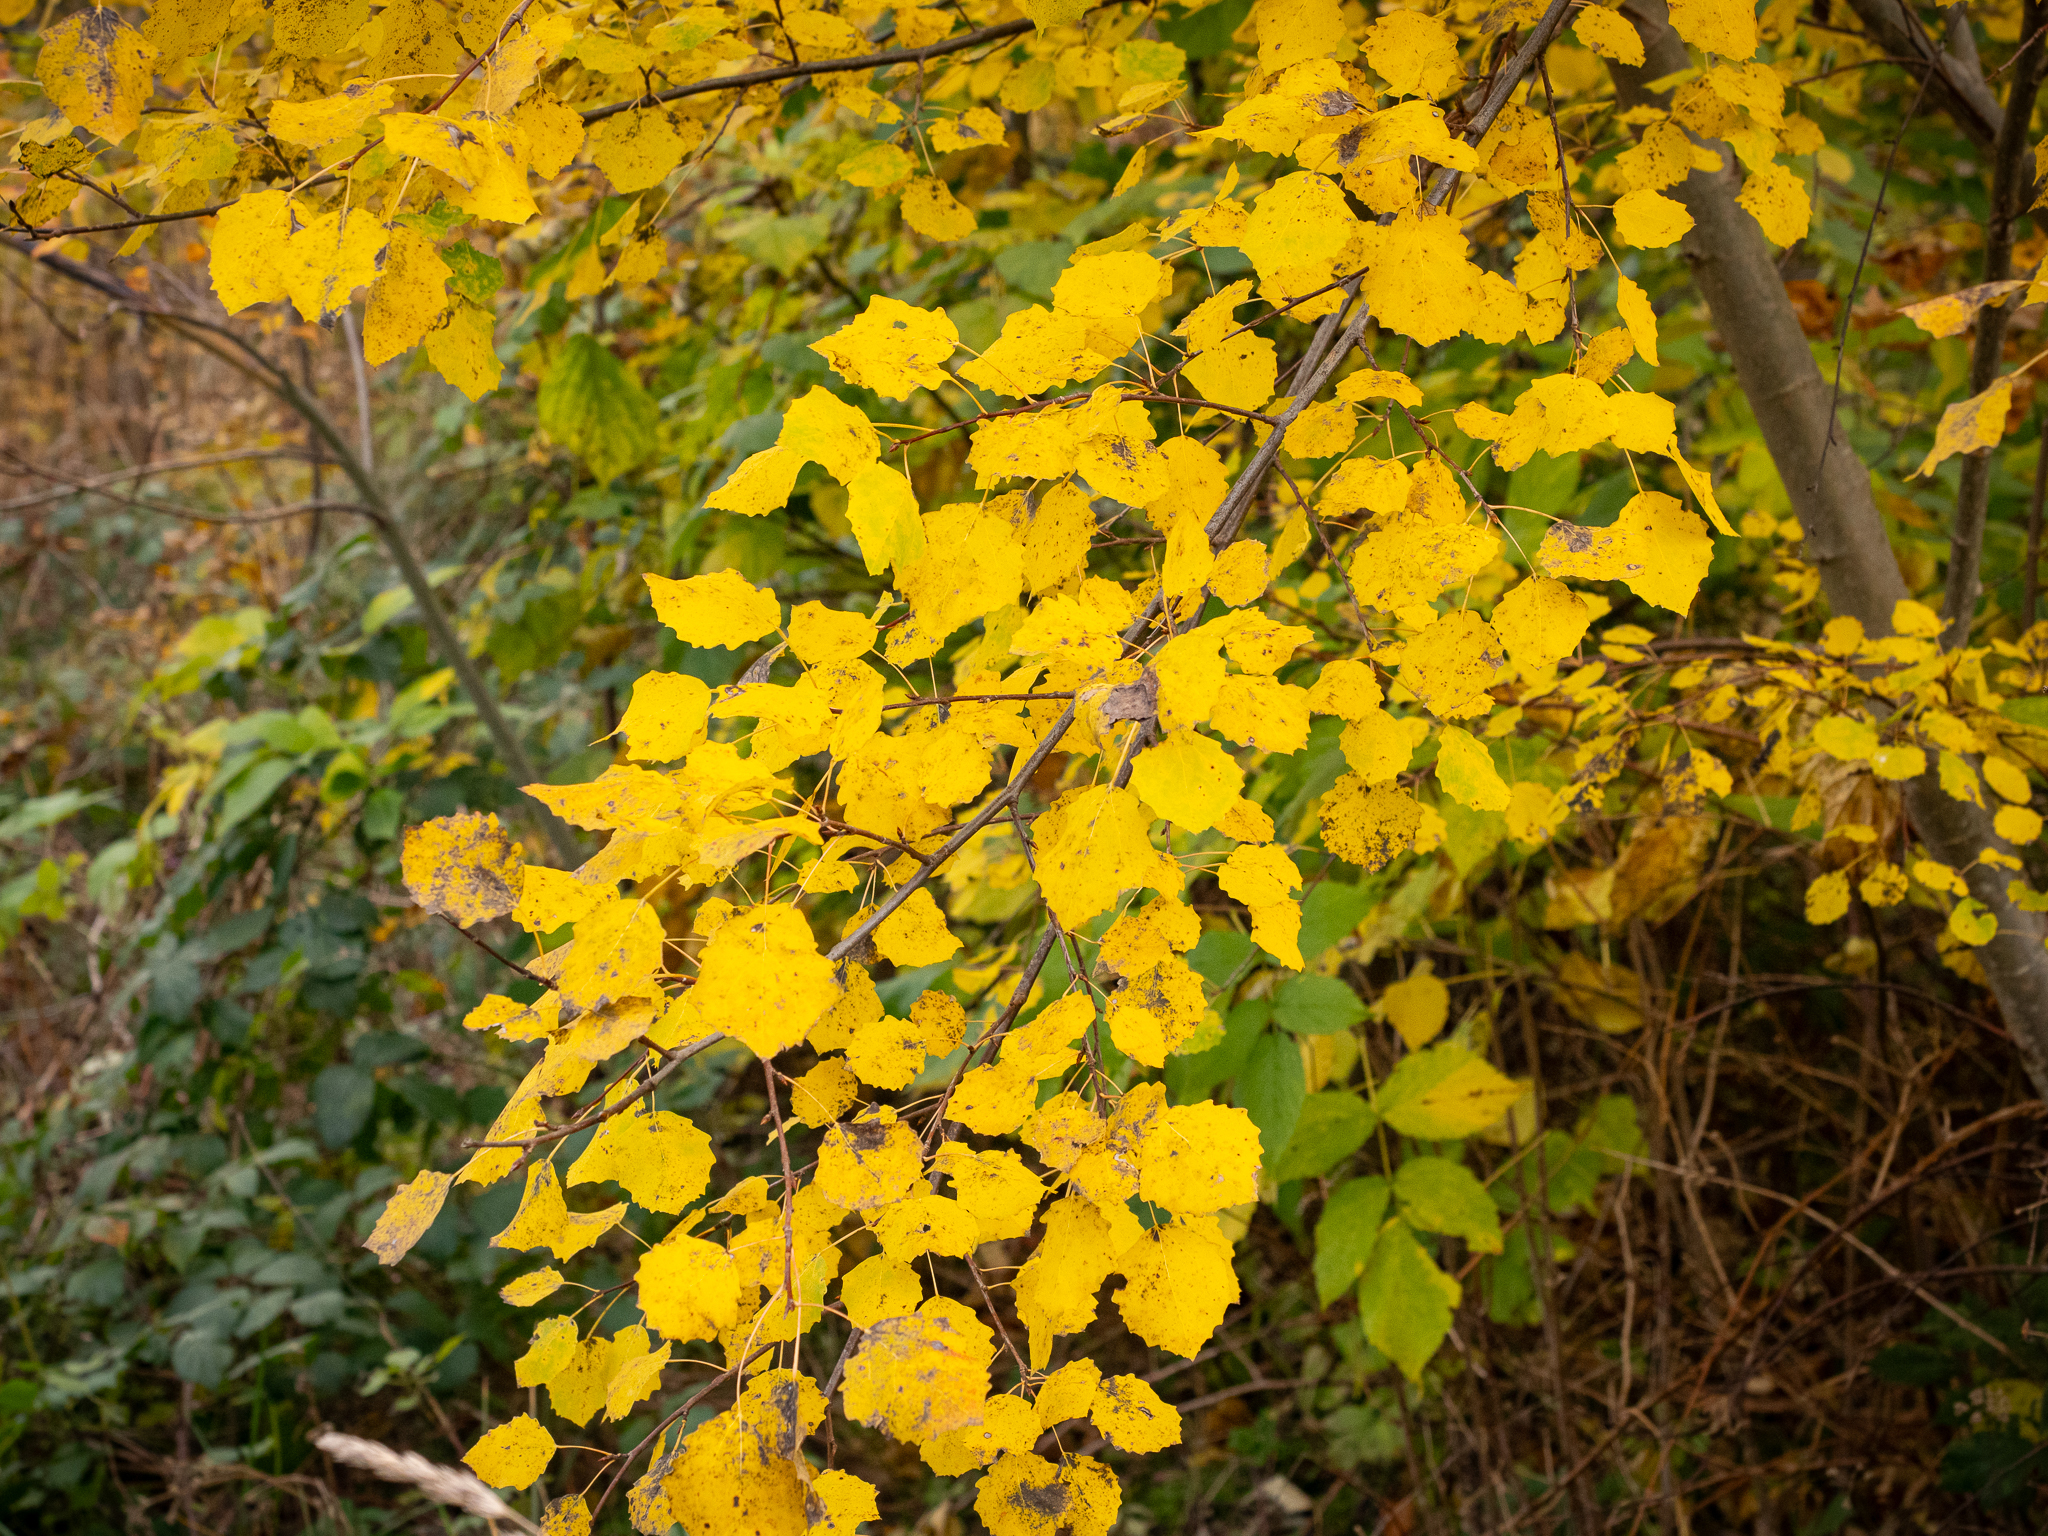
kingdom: Plantae
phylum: Tracheophyta
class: Magnoliopsida
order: Malpighiales
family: Salicaceae
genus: Populus
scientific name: Populus tremula
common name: European aspen
